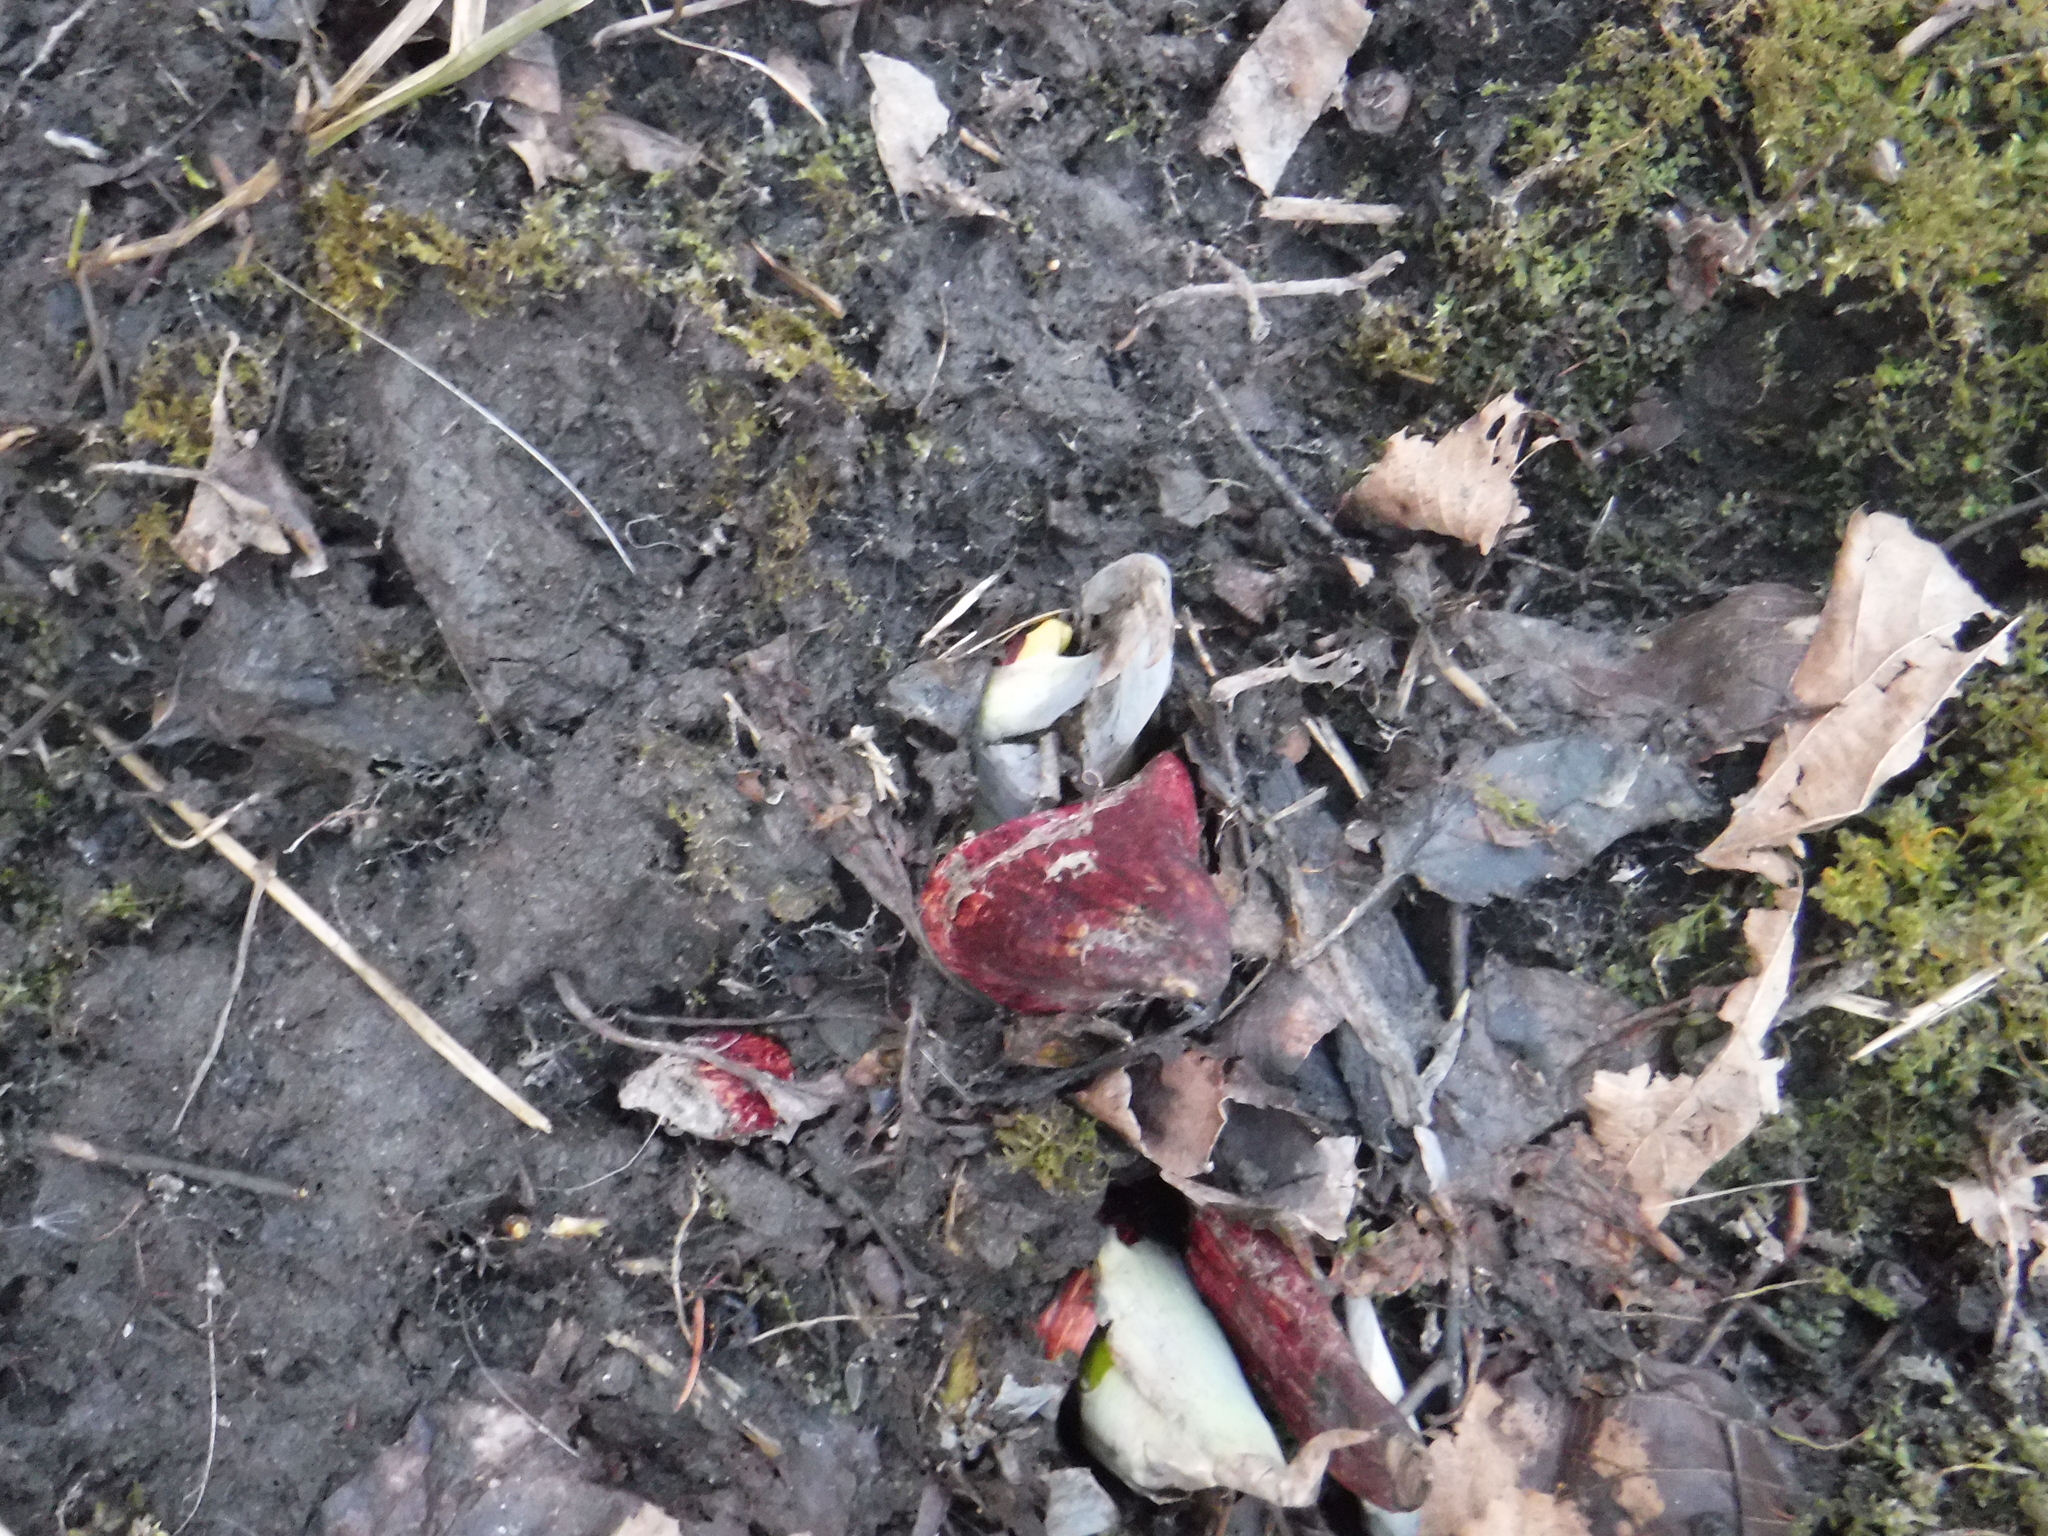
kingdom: Plantae
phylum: Tracheophyta
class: Liliopsida
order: Alismatales
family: Araceae
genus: Symplocarpus
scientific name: Symplocarpus foetidus
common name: Eastern skunk cabbage
